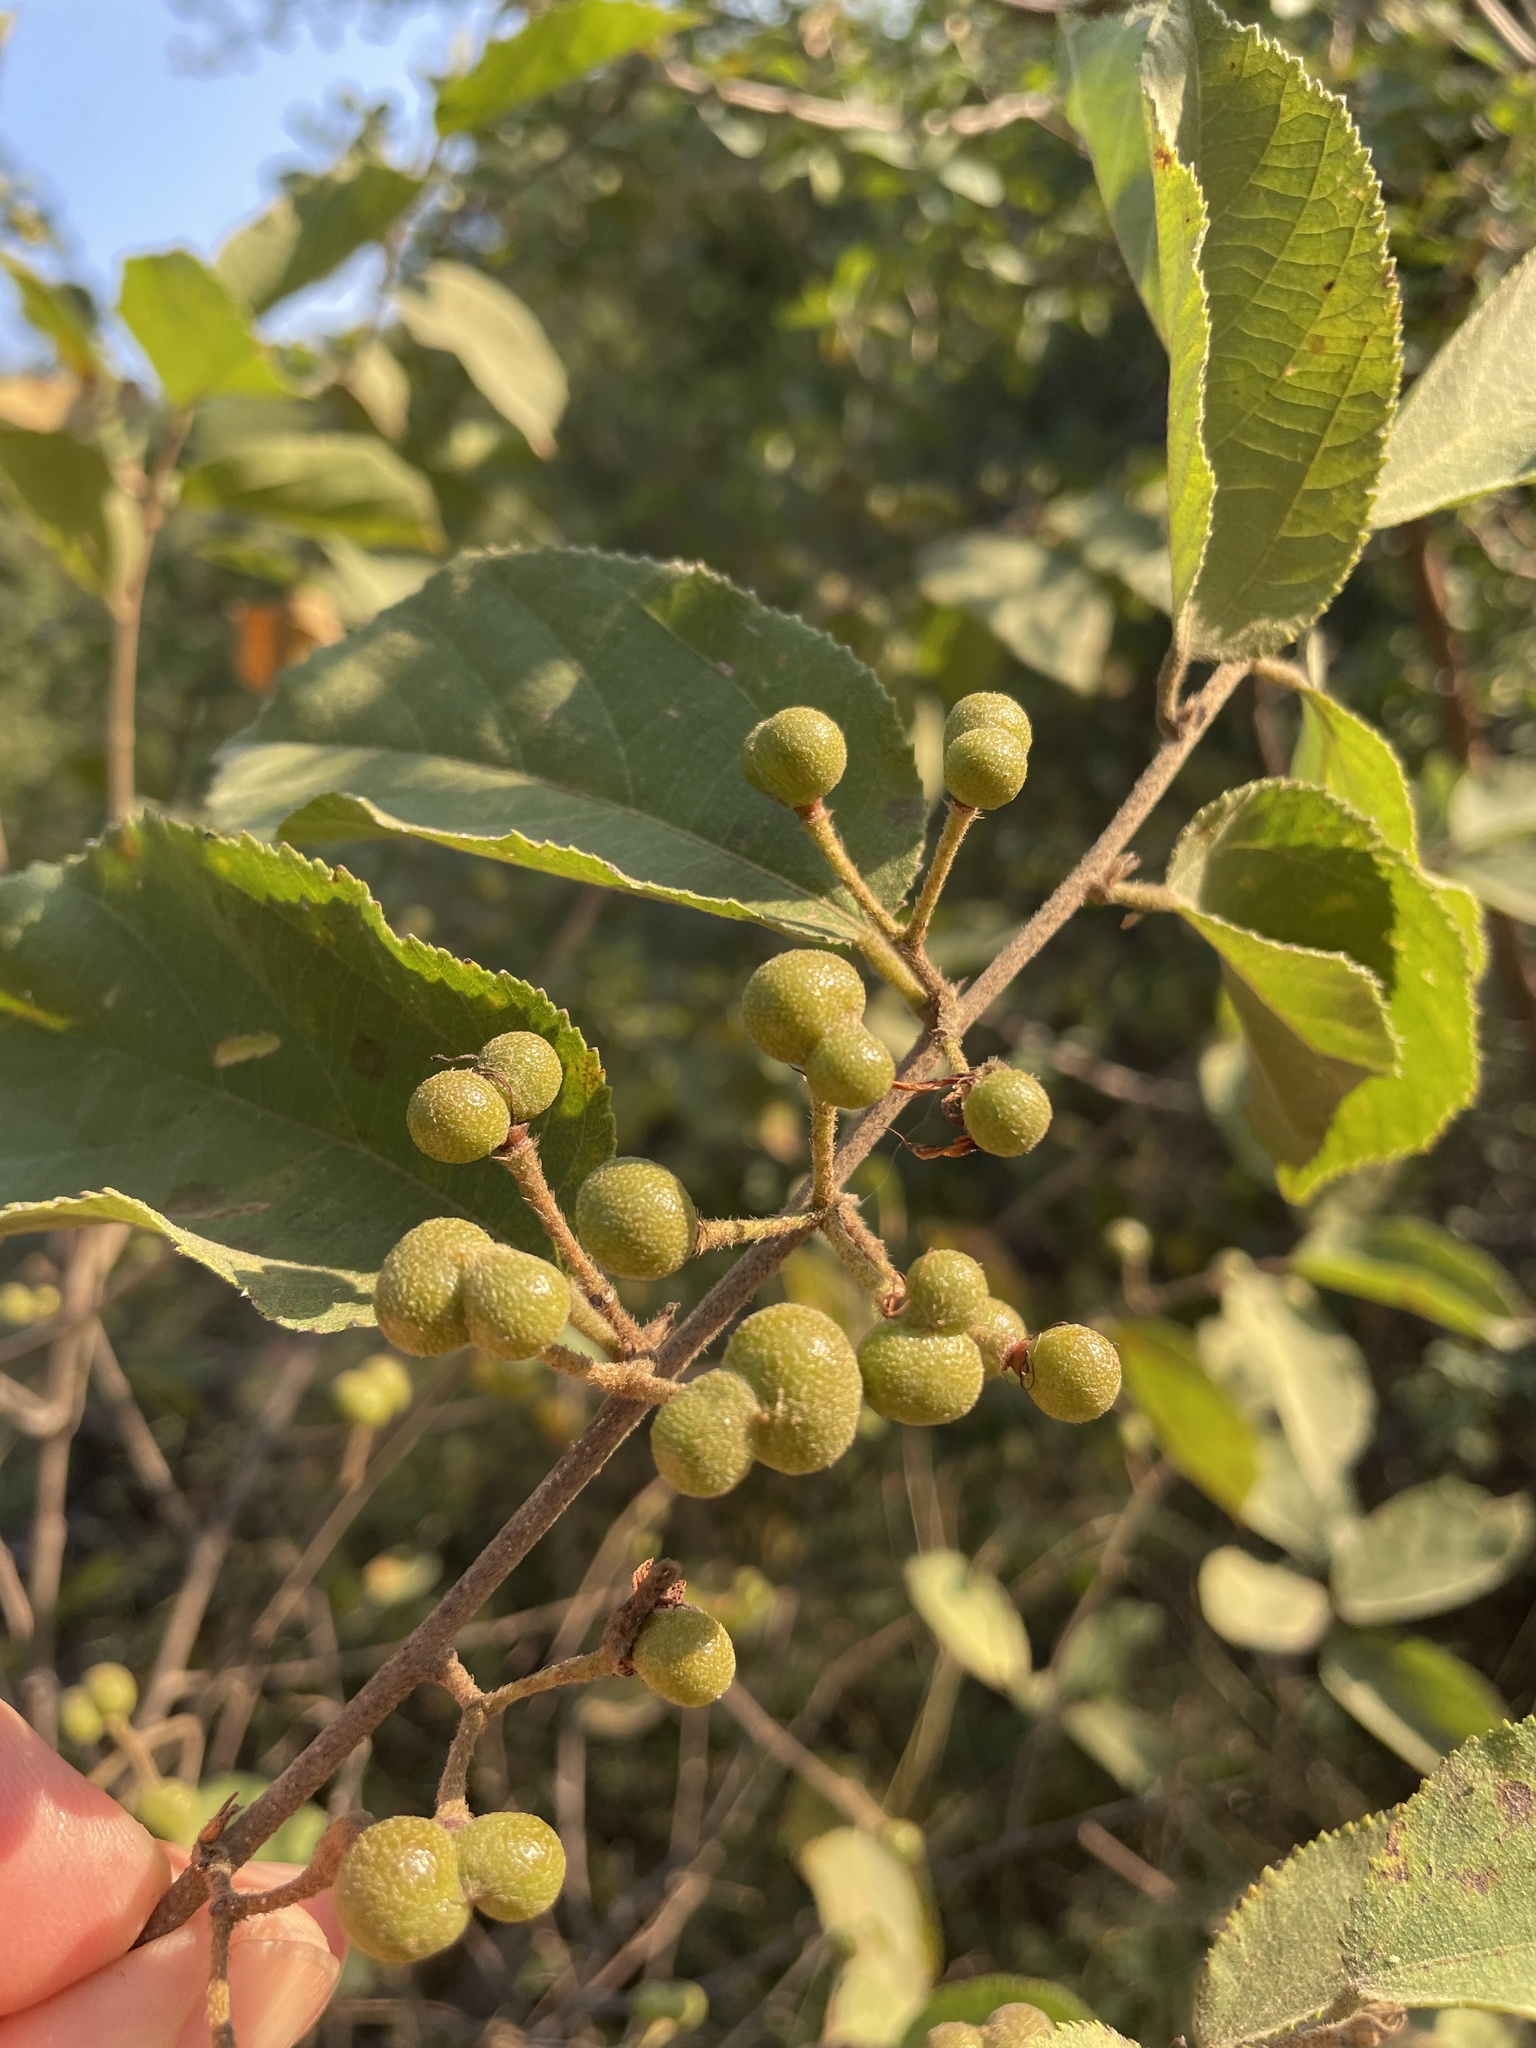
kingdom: Plantae
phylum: Tracheophyta
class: Magnoliopsida
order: Malvales
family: Malvaceae
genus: Grewia
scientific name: Grewia flavescens
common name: Sandpaper raisin
